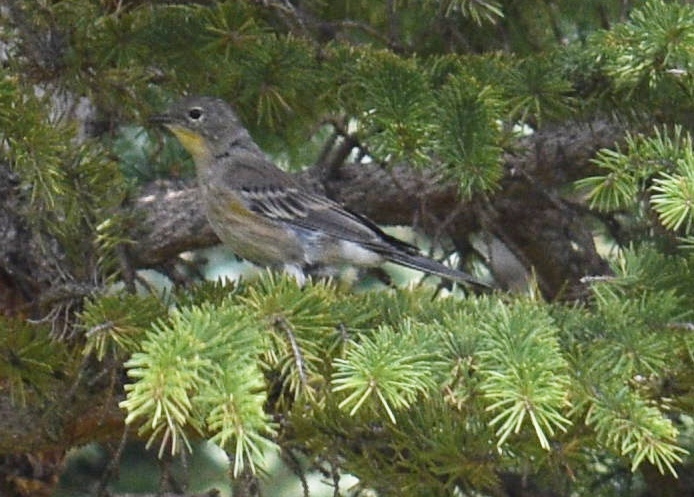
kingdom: Animalia
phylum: Chordata
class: Aves
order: Passeriformes
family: Parulidae
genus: Setophaga
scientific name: Setophaga coronata
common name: Myrtle warbler
